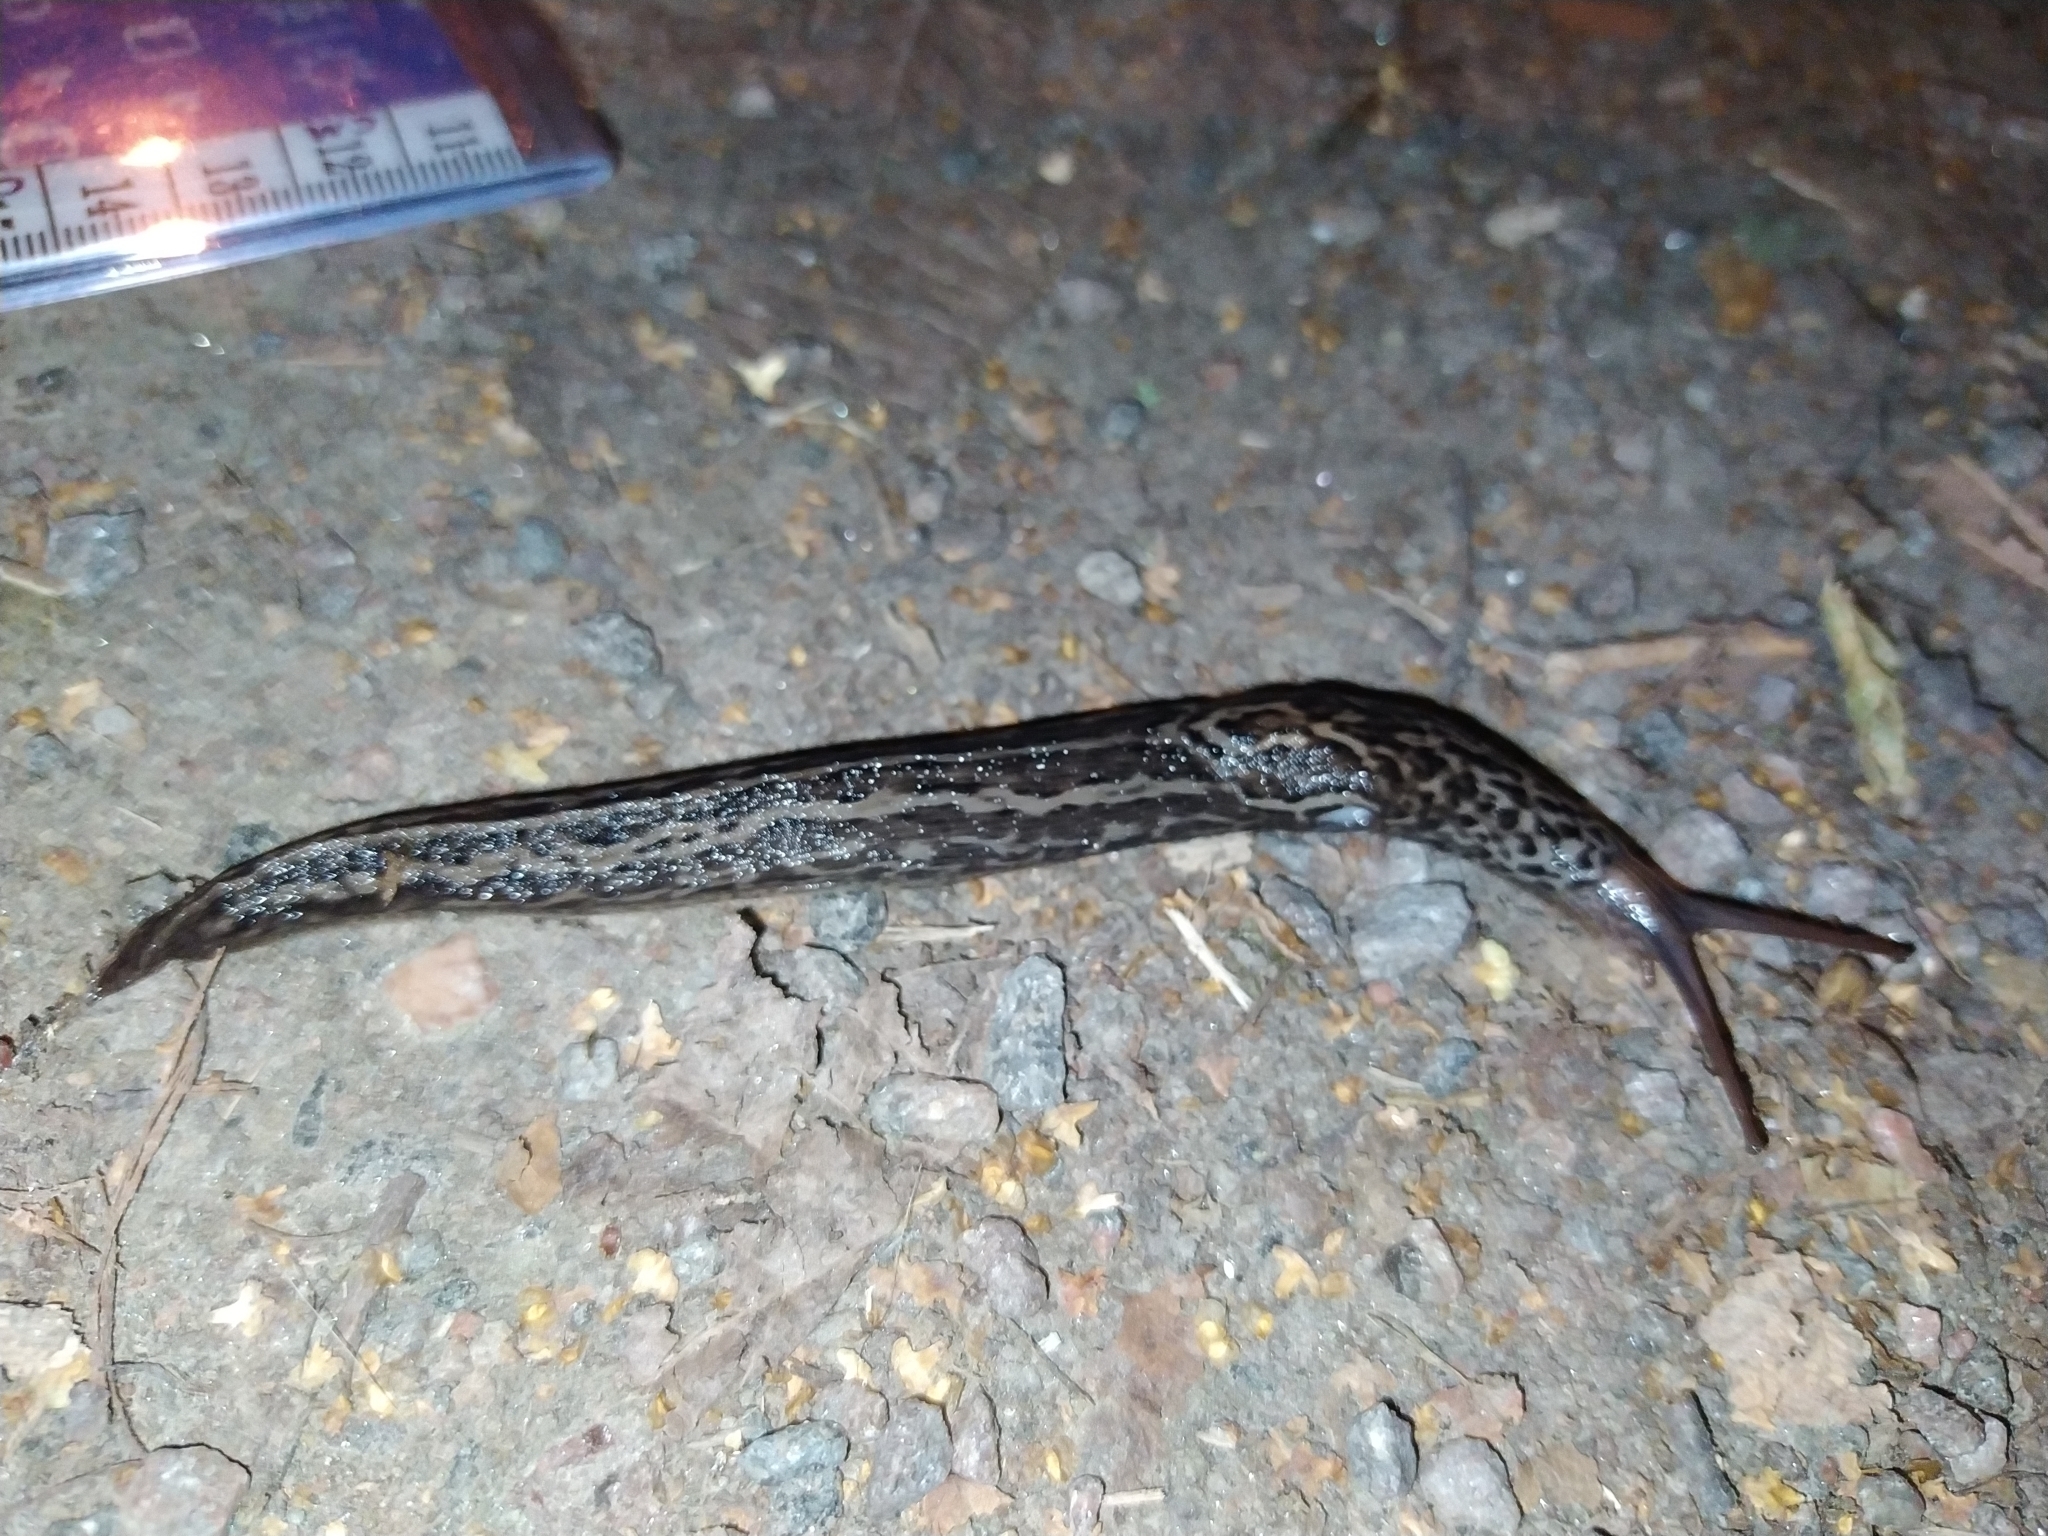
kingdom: Animalia
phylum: Mollusca
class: Gastropoda
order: Stylommatophora
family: Limacidae
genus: Limax
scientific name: Limax maximus
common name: Great grey slug
